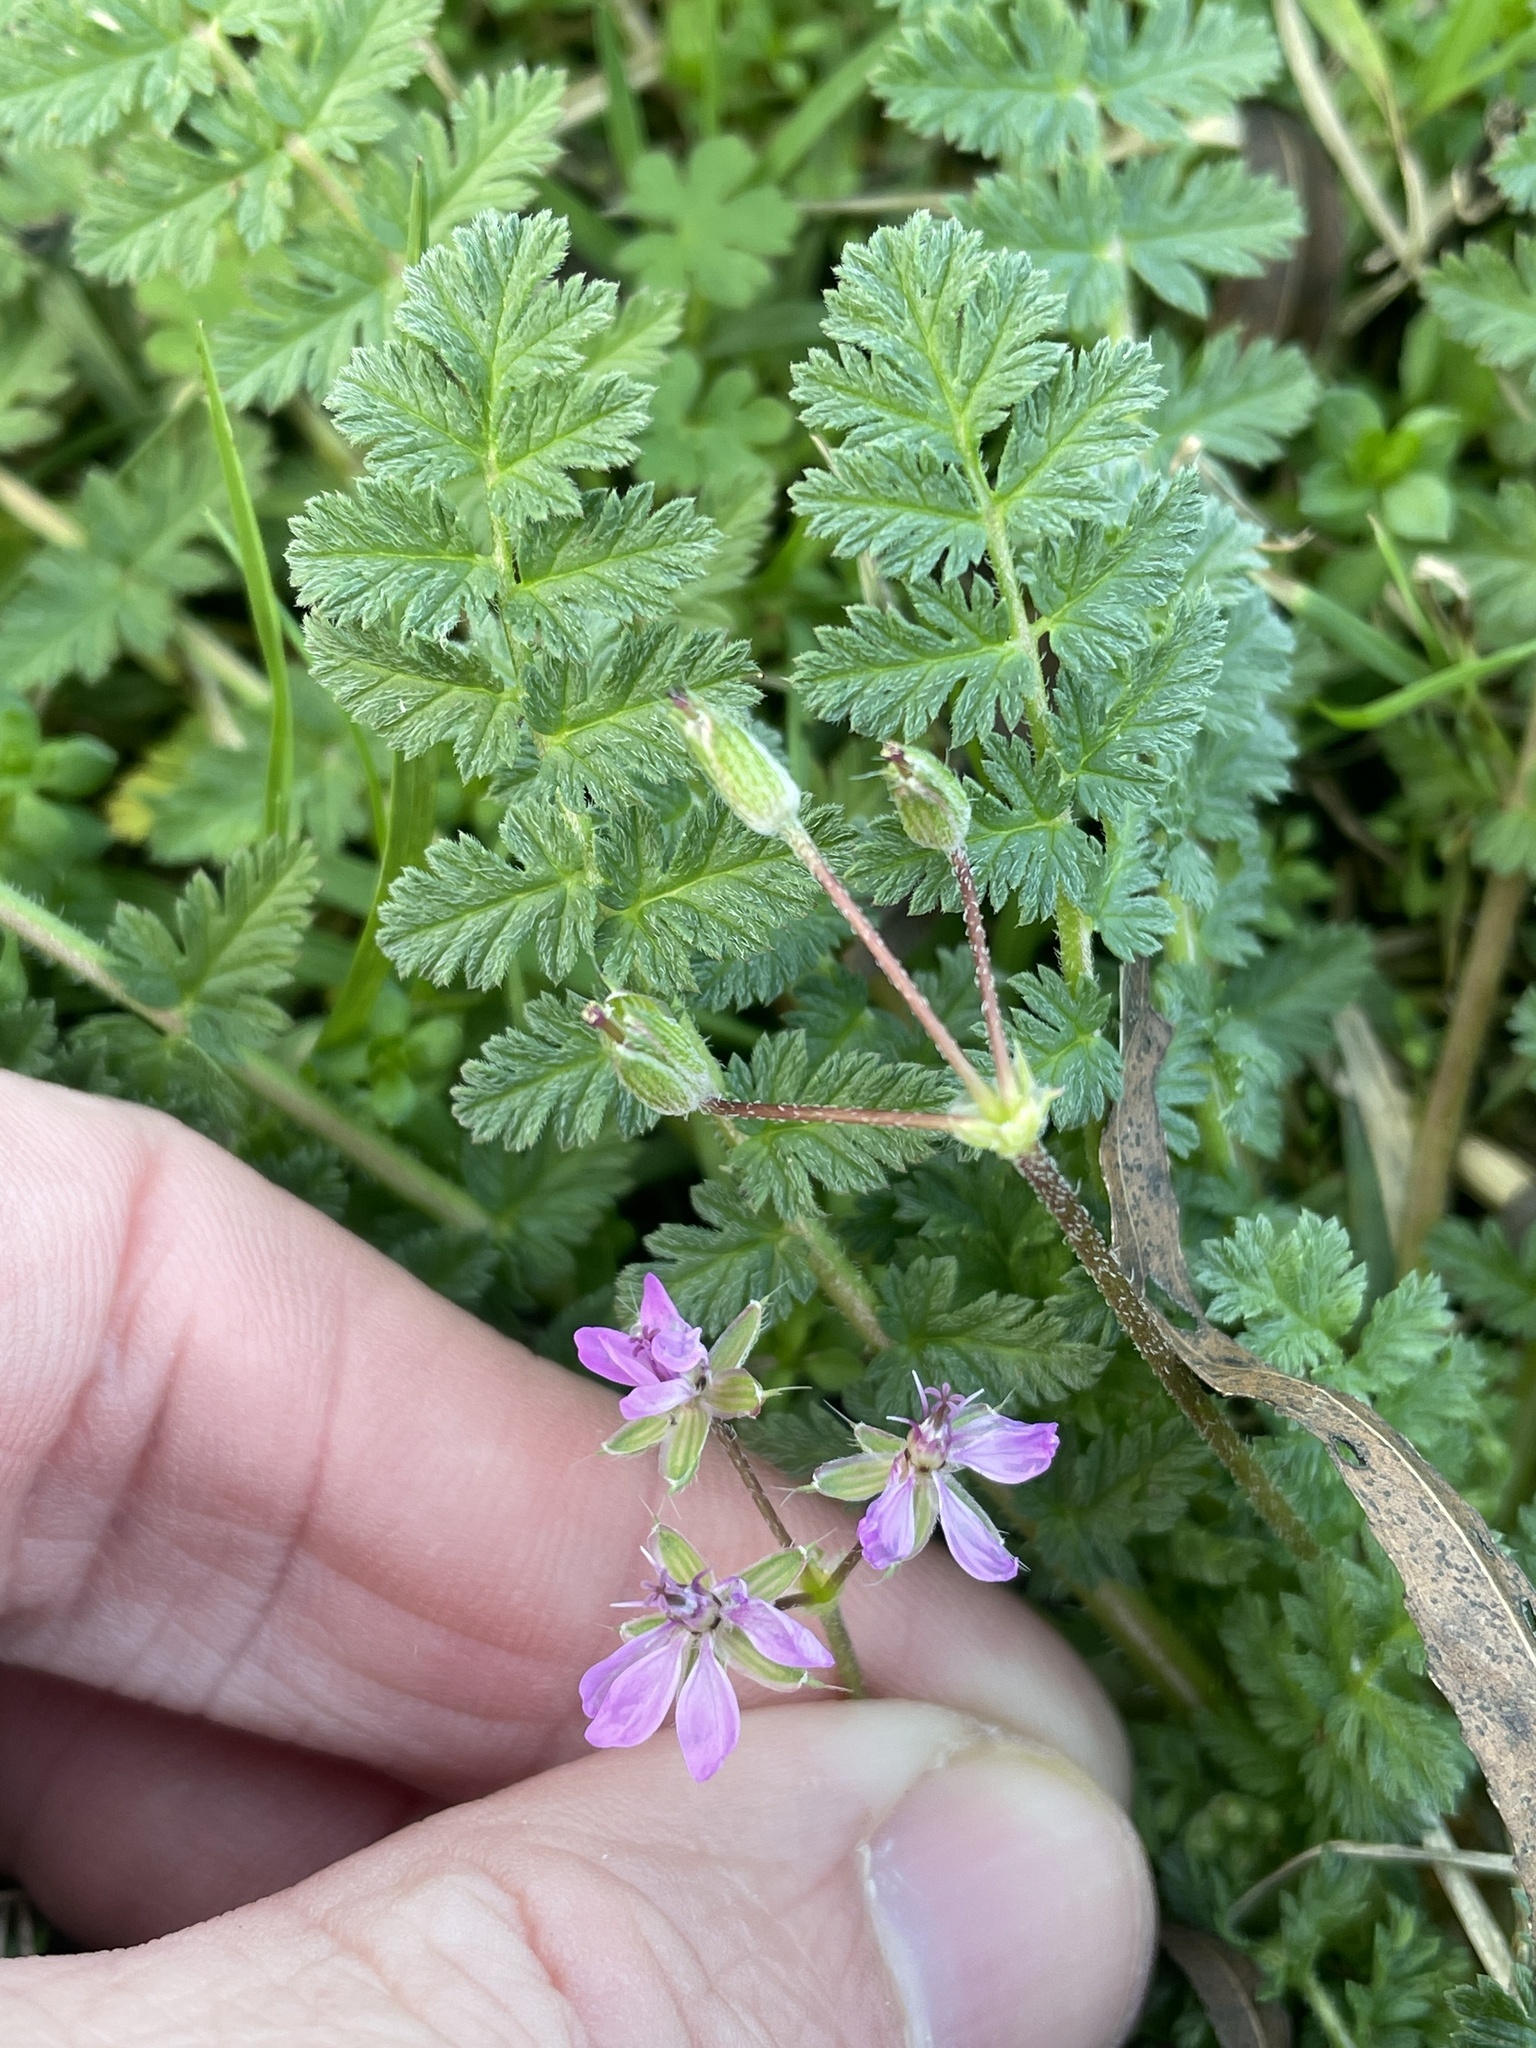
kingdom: Plantae
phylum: Tracheophyta
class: Magnoliopsida
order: Geraniales
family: Geraniaceae
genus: Erodium
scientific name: Erodium cicutarium
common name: Common stork's-bill
